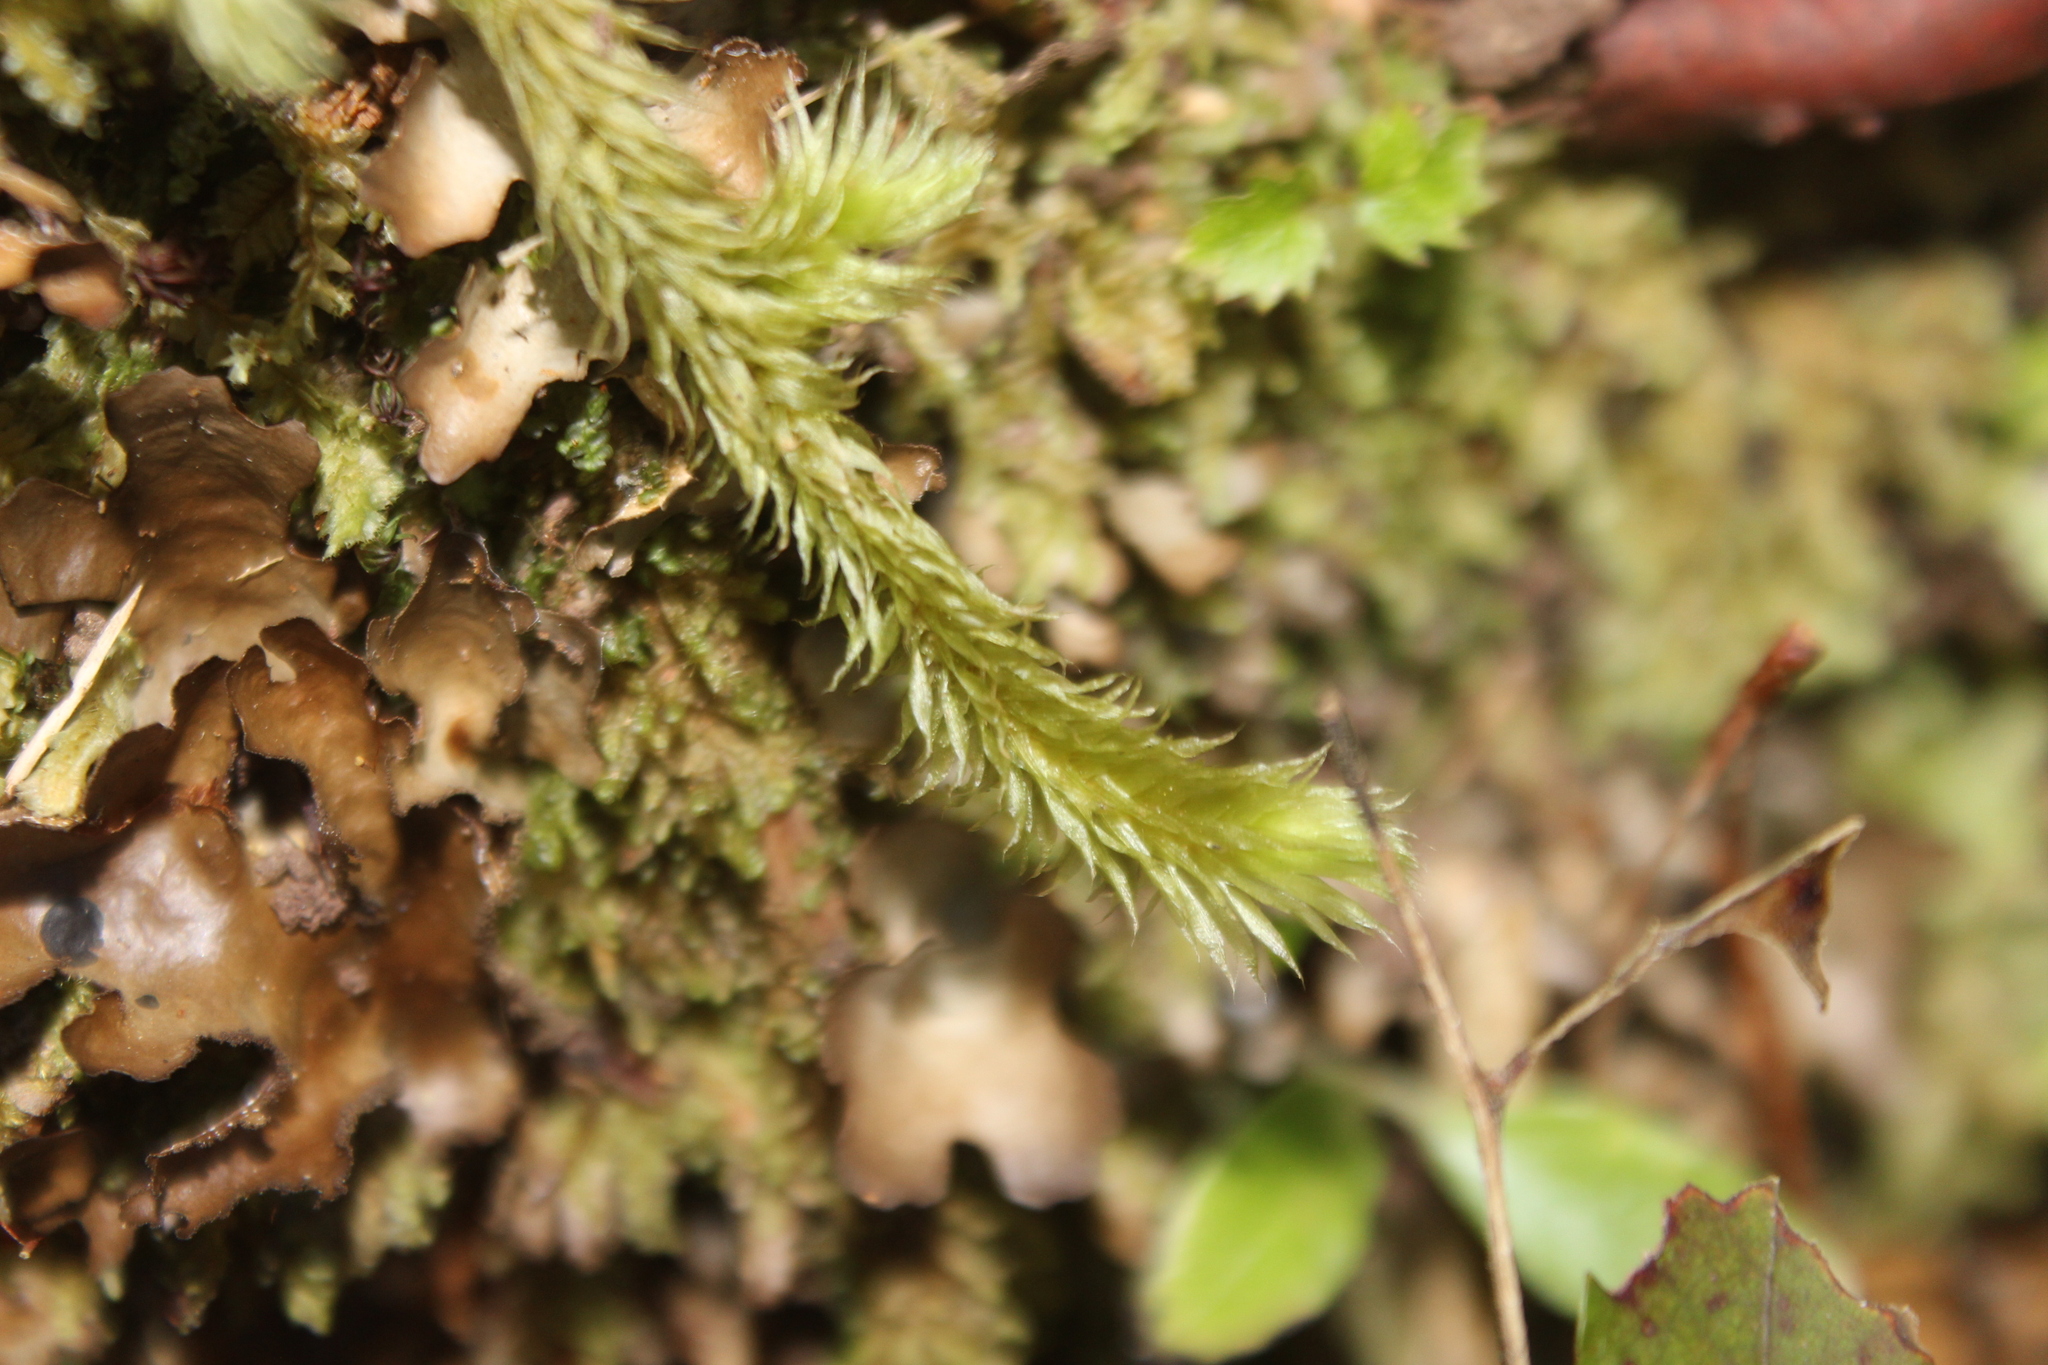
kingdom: Plantae
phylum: Bryophyta
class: Bryopsida
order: Bartramiales
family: Bartramiaceae
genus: Breutelia
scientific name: Breutelia elongata
